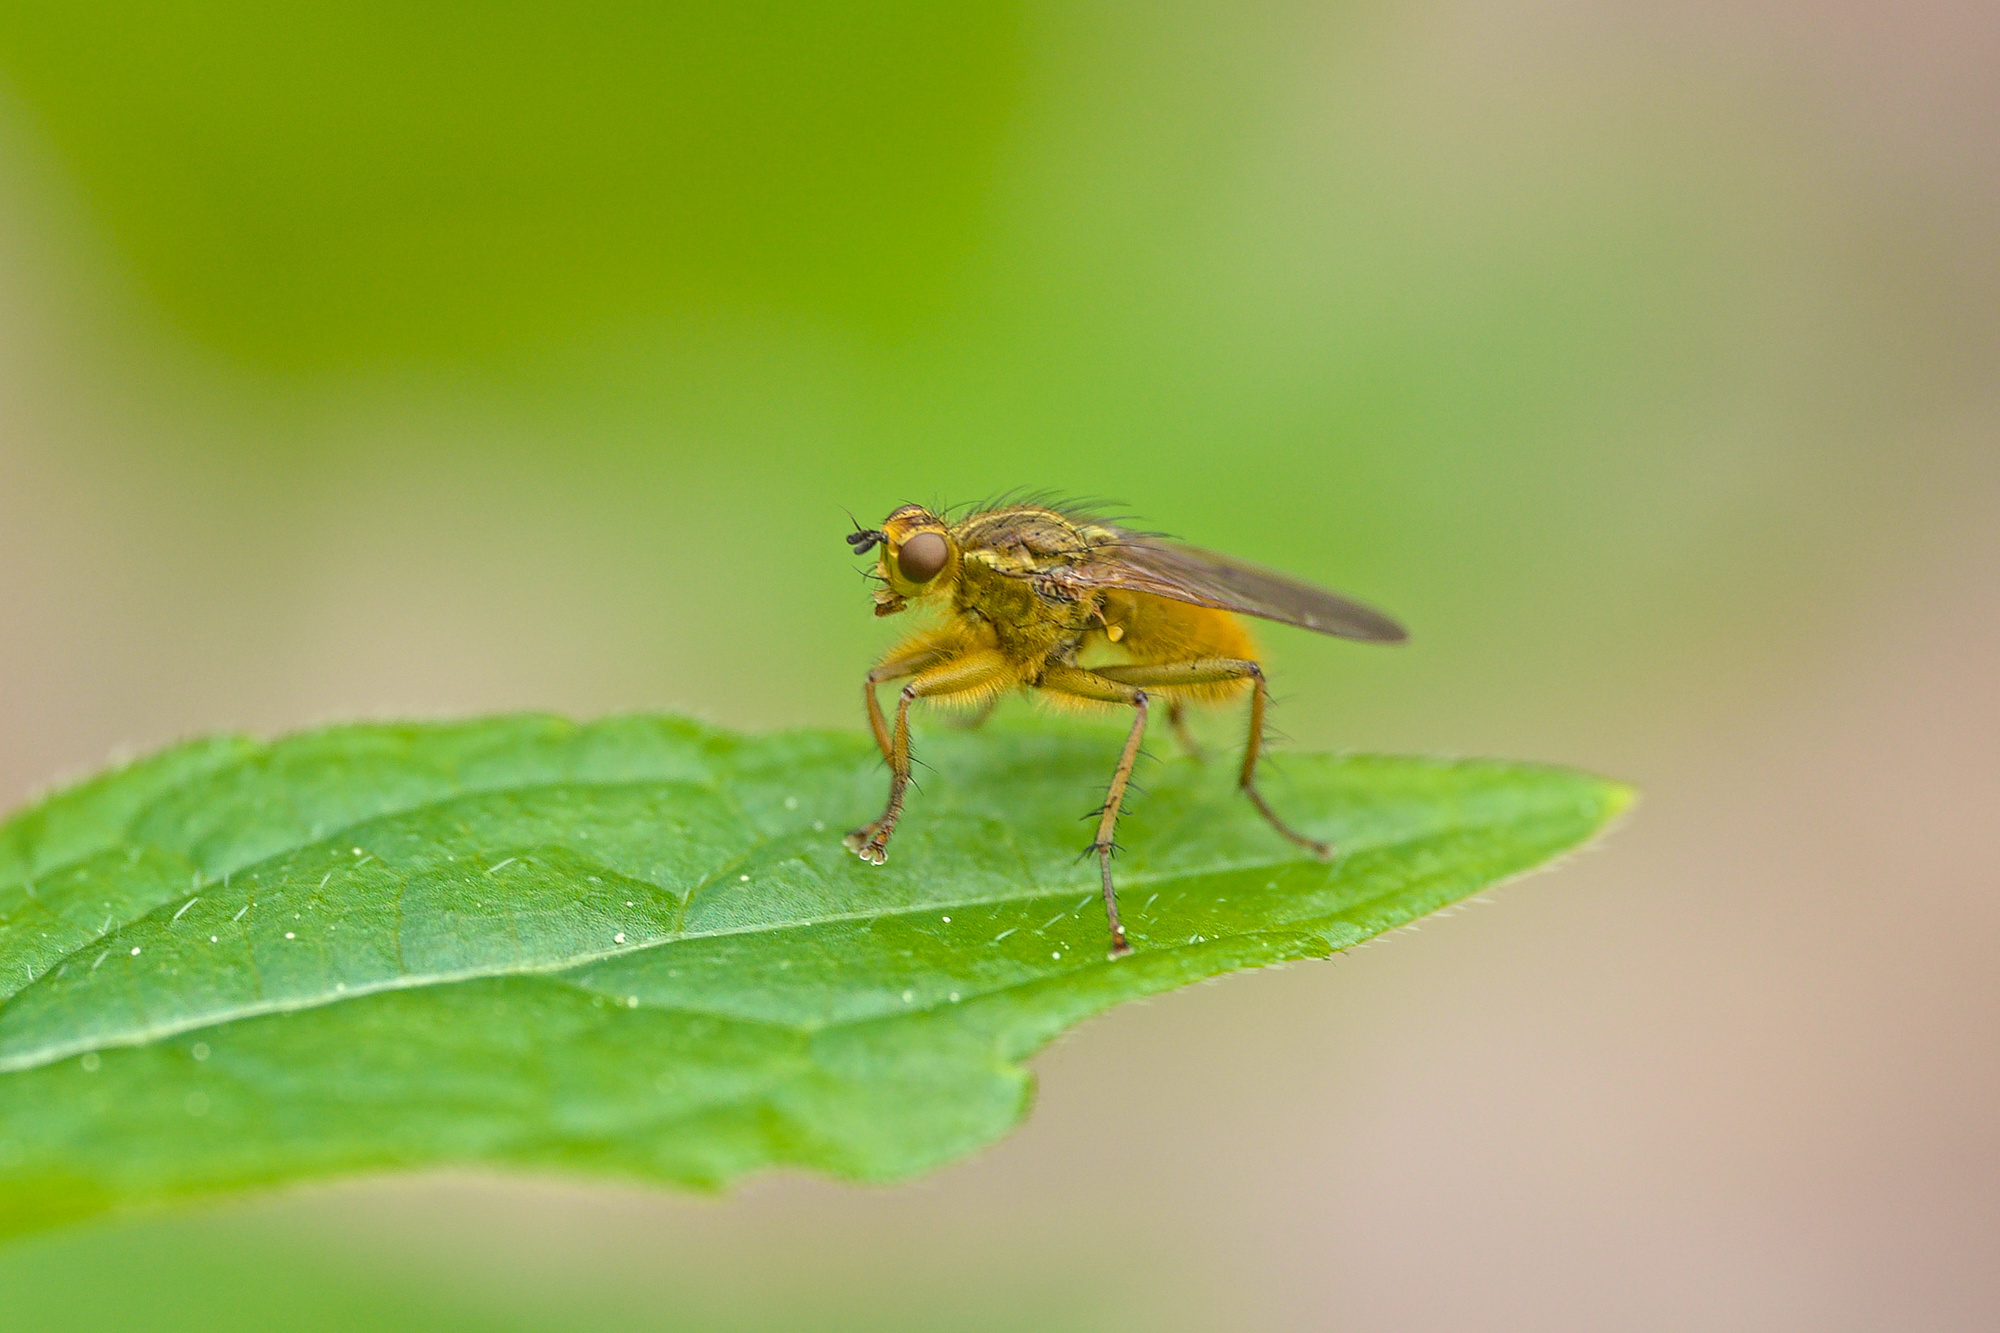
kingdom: Animalia
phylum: Arthropoda
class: Insecta
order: Diptera
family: Scathophagidae
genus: Scathophaga
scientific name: Scathophaga stercoraria
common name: Yellow dung fly
